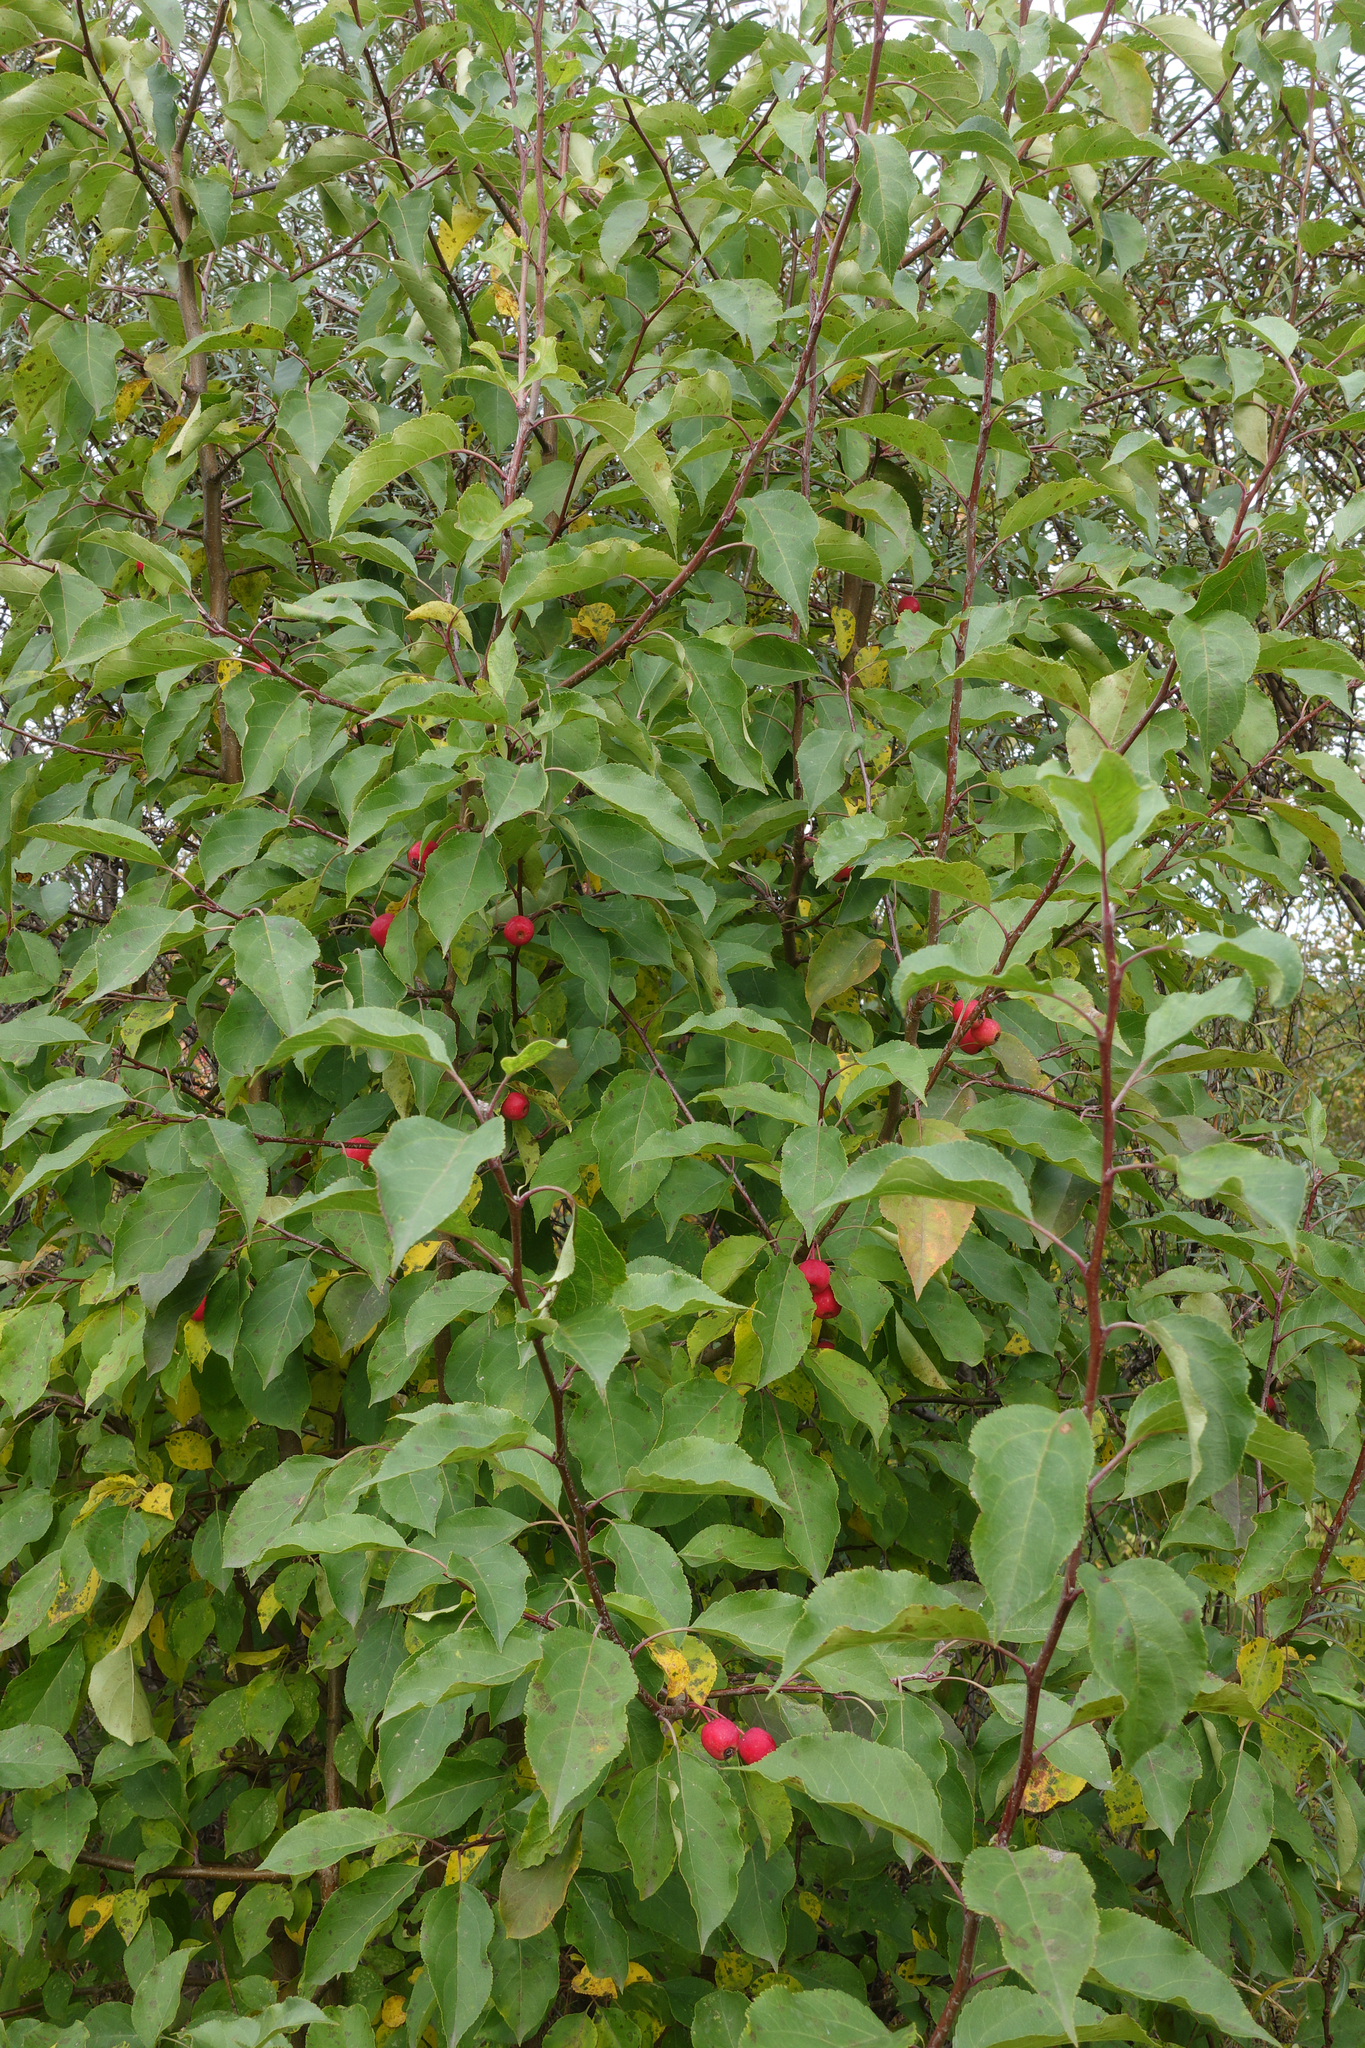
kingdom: Plantae
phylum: Tracheophyta
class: Magnoliopsida
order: Rosales
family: Rosaceae
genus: Malus
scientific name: Malus baccata
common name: Siberian crab
